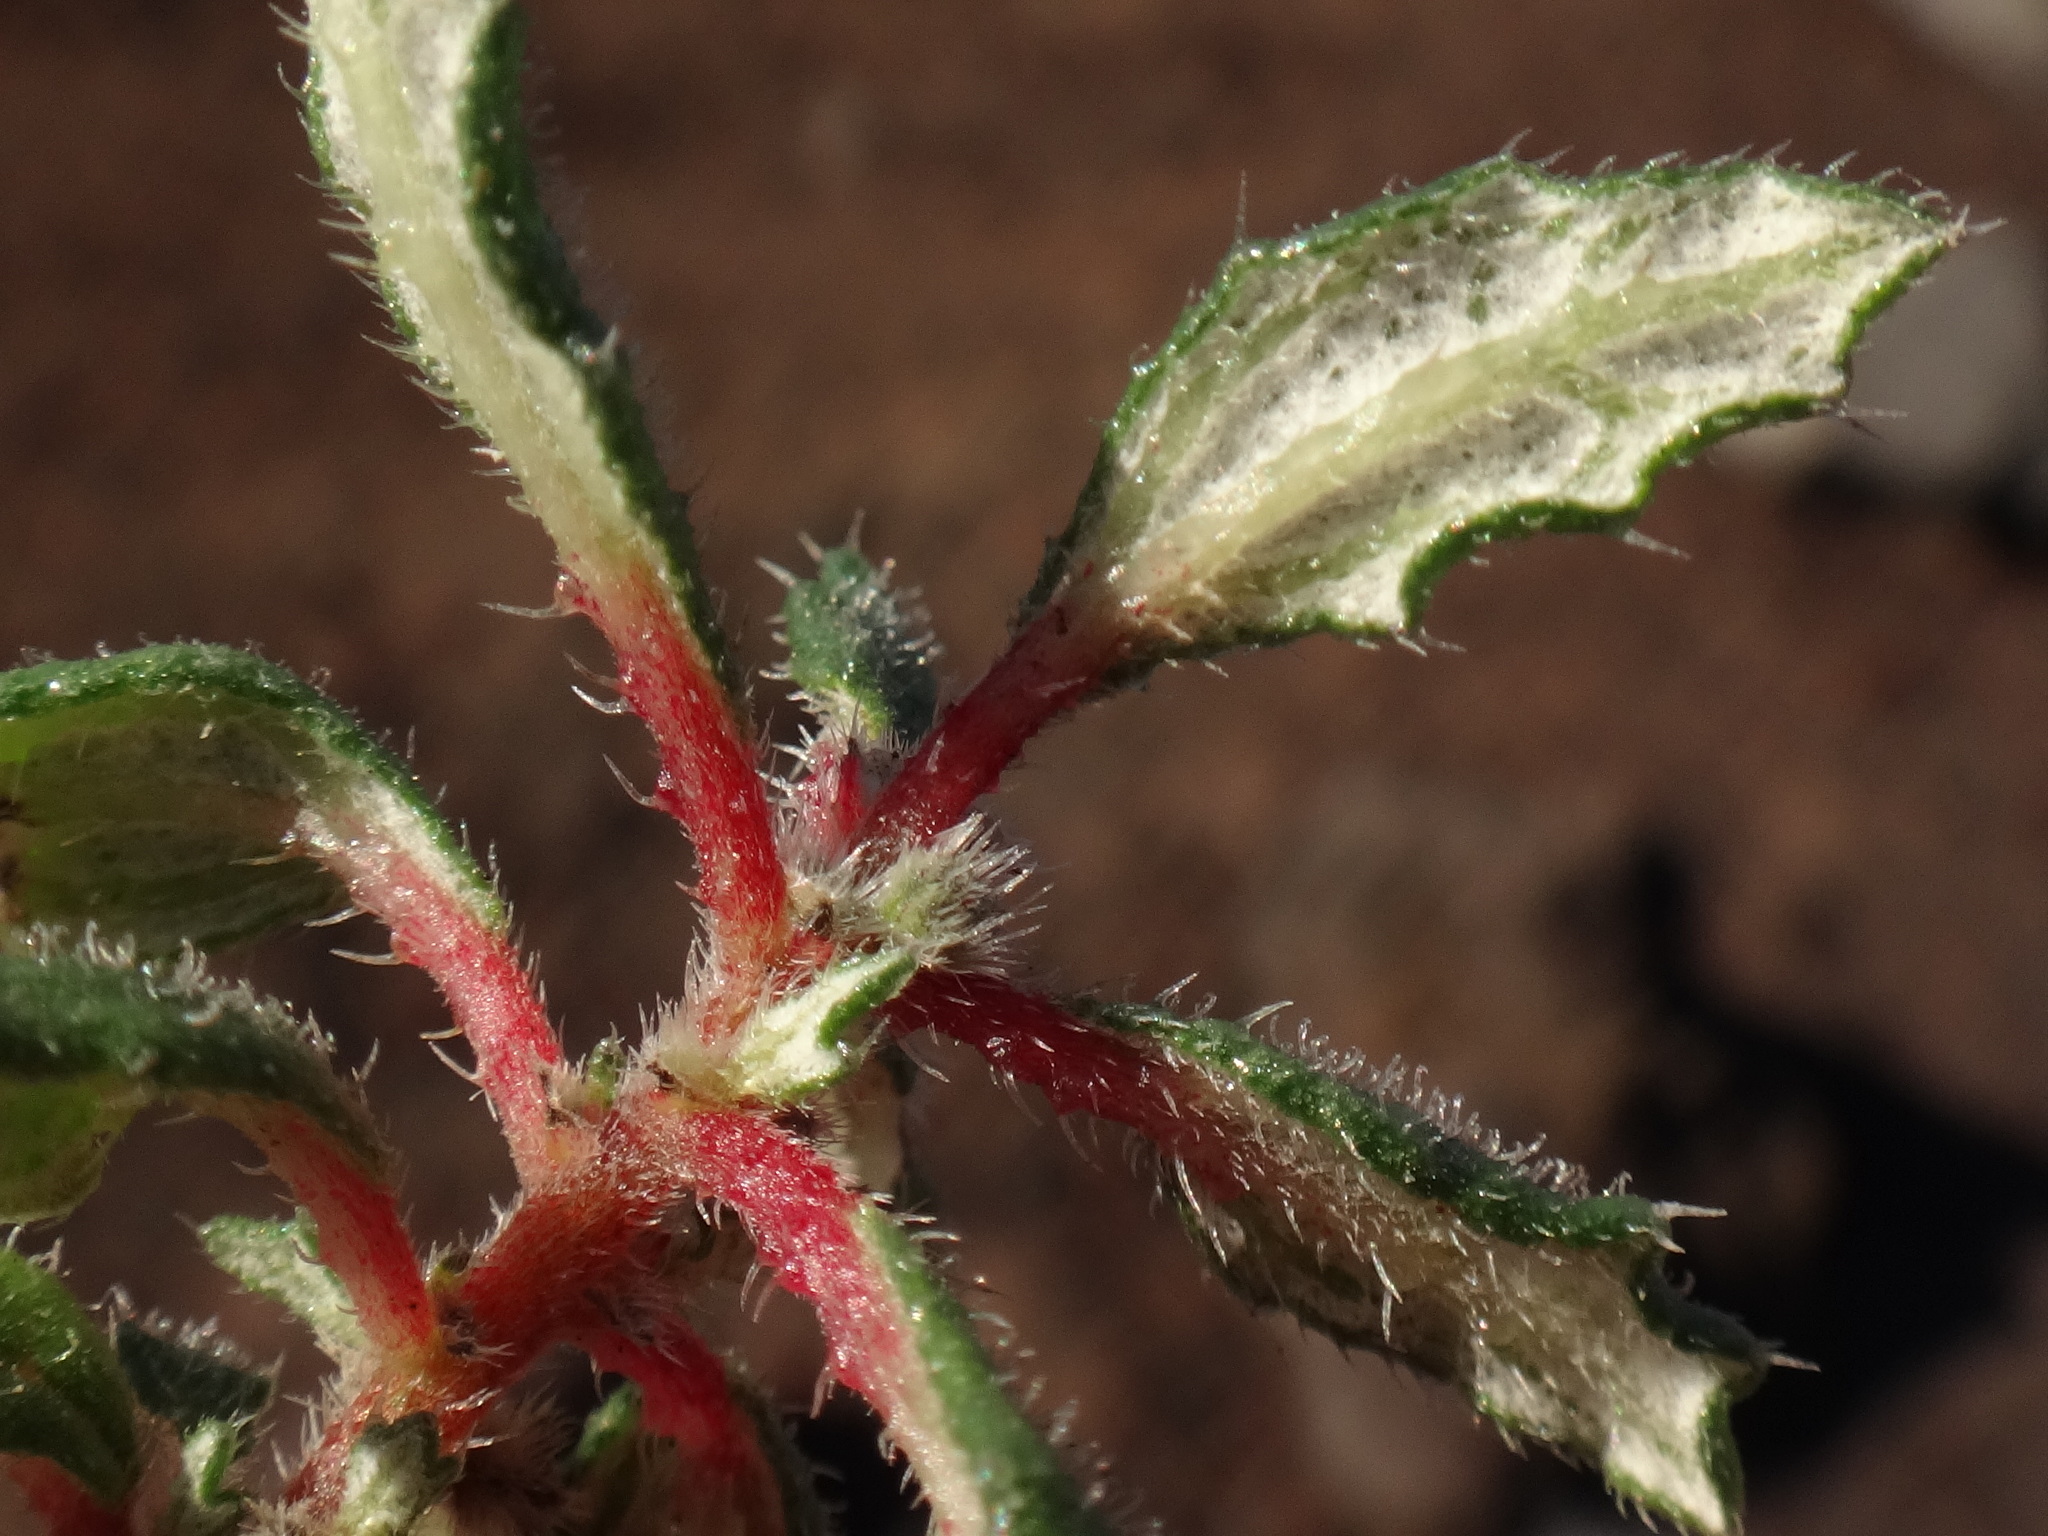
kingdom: Plantae
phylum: Tracheophyta
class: Magnoliopsida
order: Rosales
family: Urticaceae
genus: Forsskaolea
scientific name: Forsskaolea angustifolia
